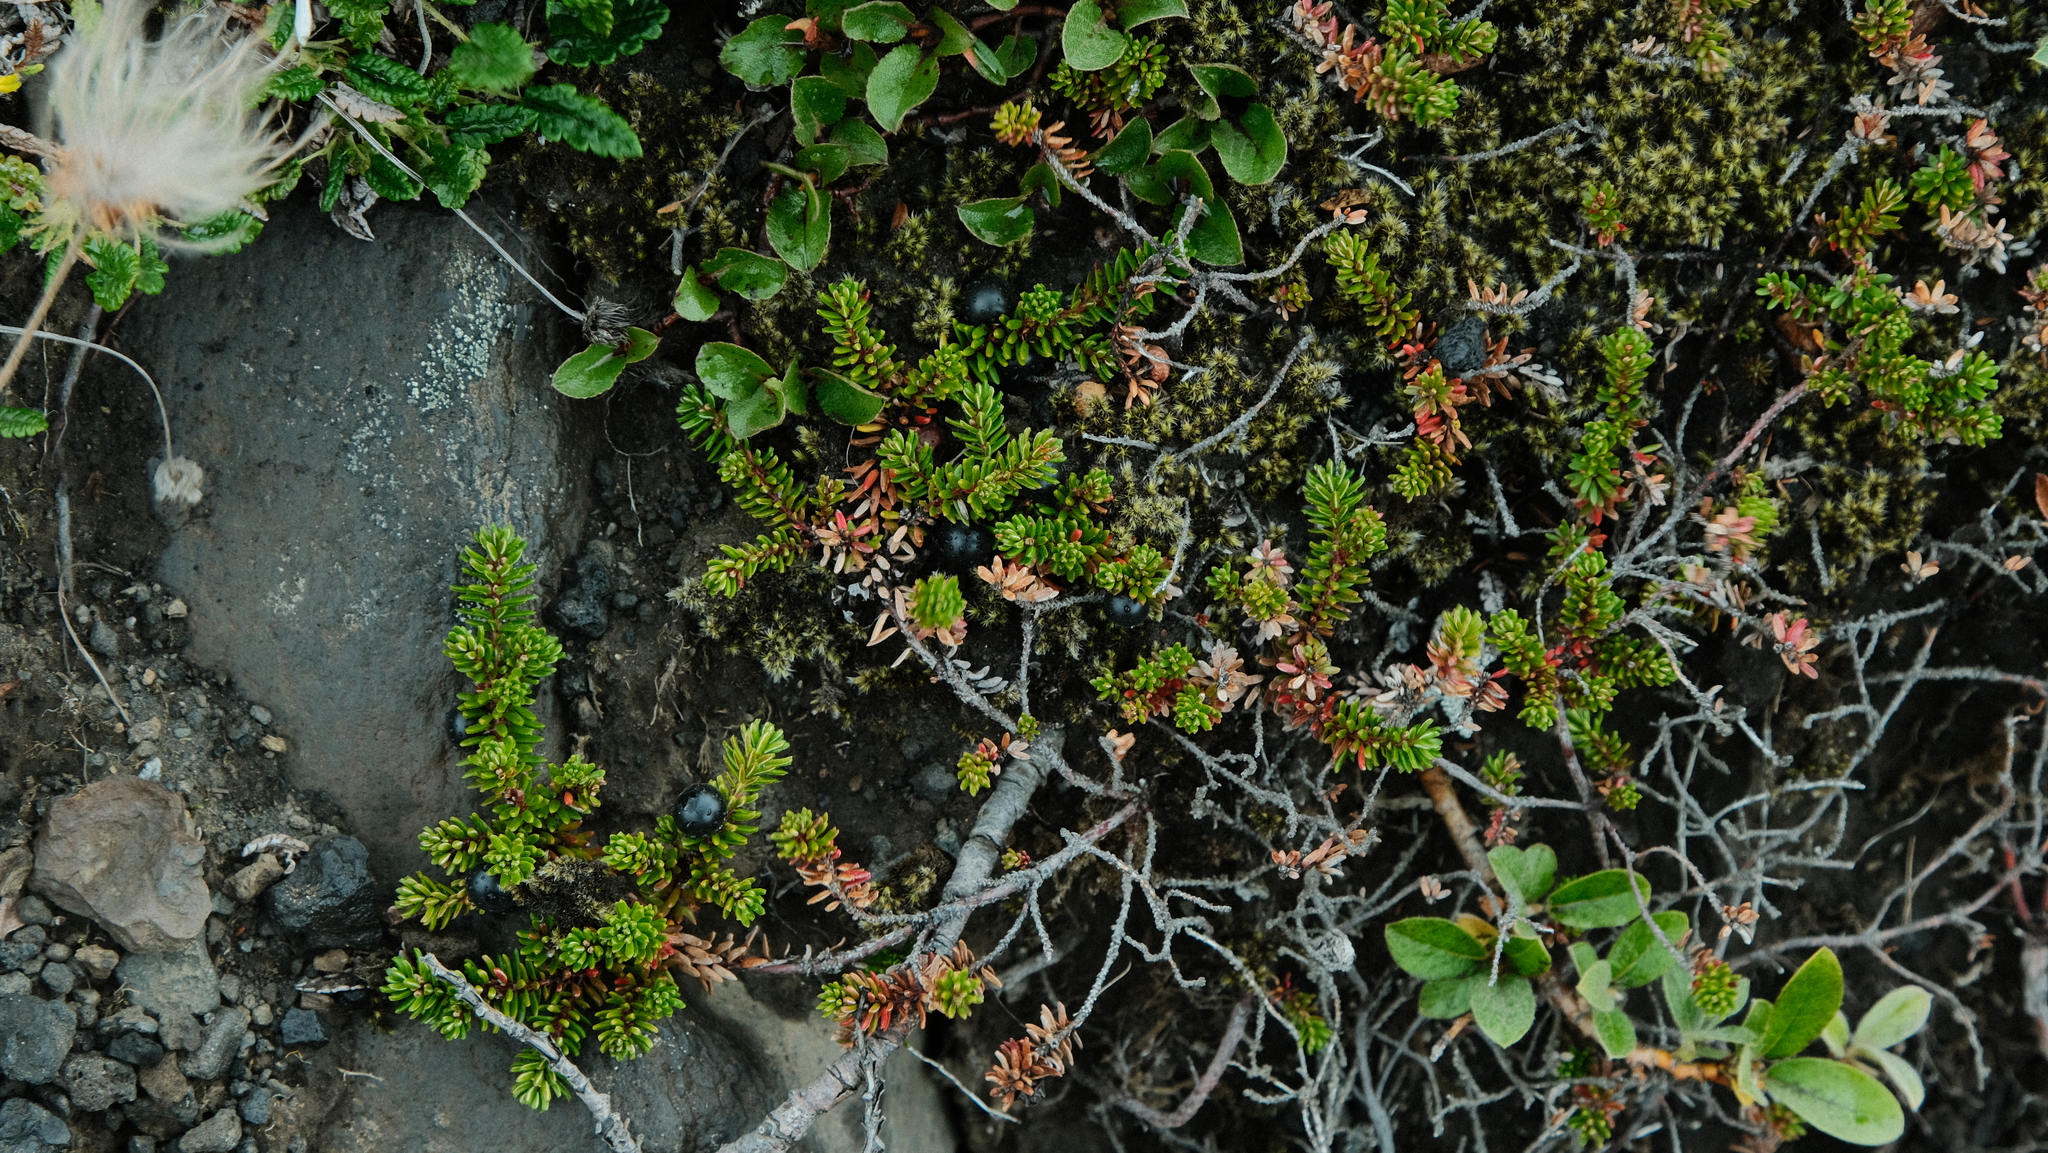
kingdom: Plantae
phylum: Tracheophyta
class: Magnoliopsida
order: Ericales
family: Ericaceae
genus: Empetrum
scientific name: Empetrum nigrum
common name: Black crowberry
